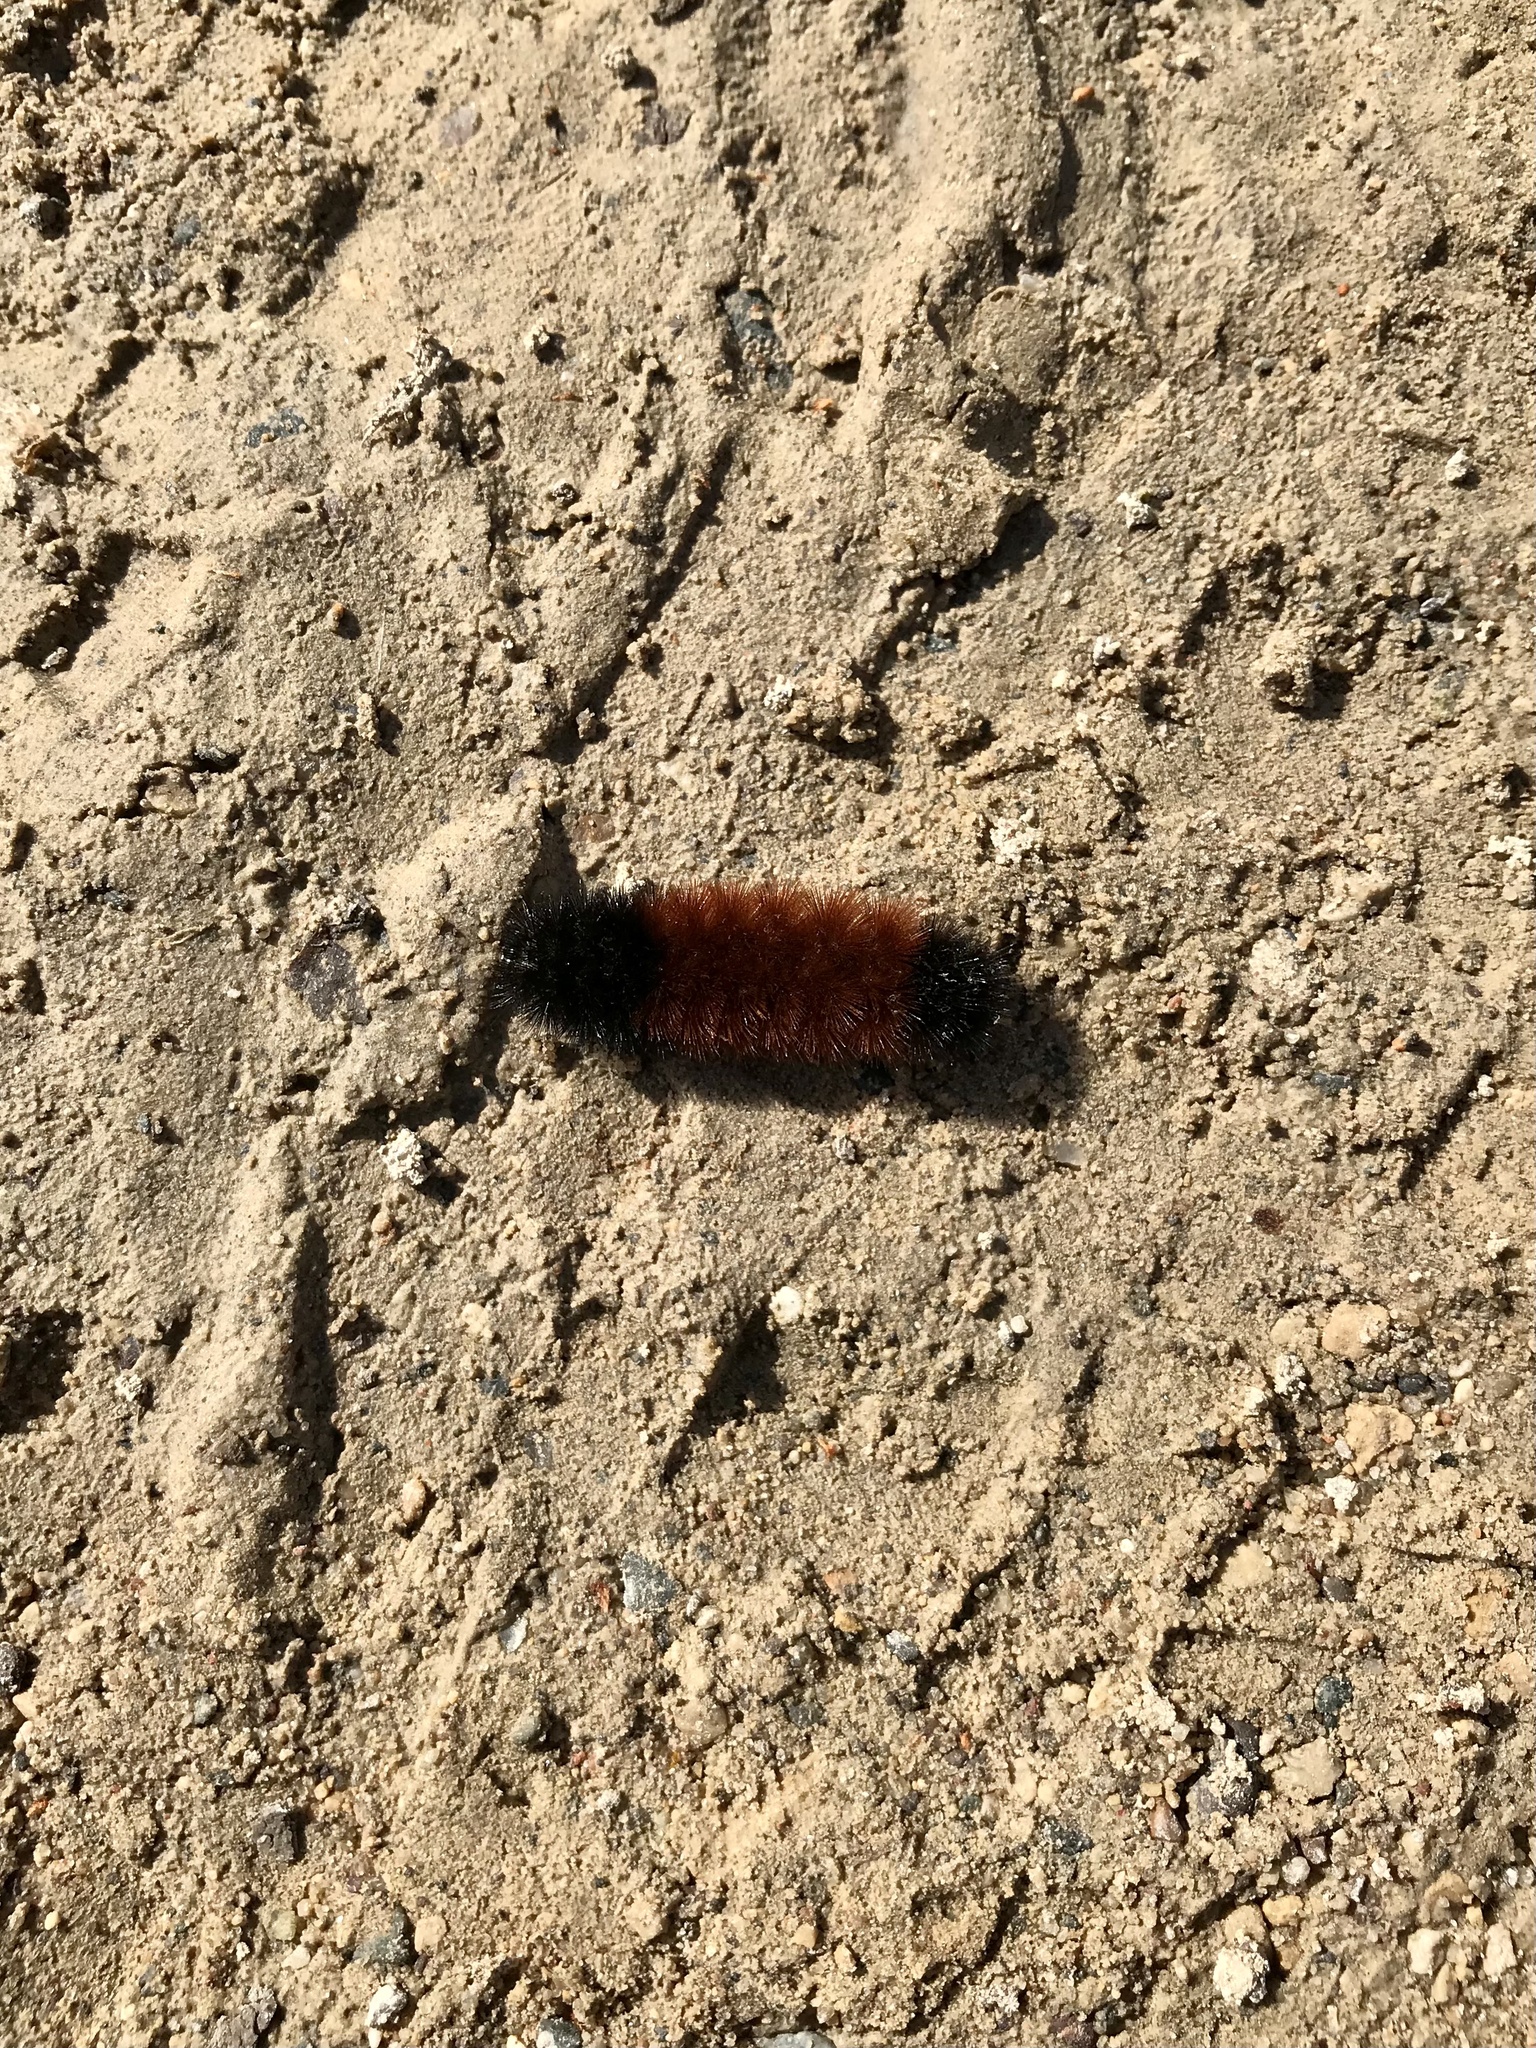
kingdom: Animalia
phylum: Arthropoda
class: Insecta
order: Lepidoptera
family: Erebidae
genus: Pyrrharctia
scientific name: Pyrrharctia isabella
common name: Isabella tiger moth
